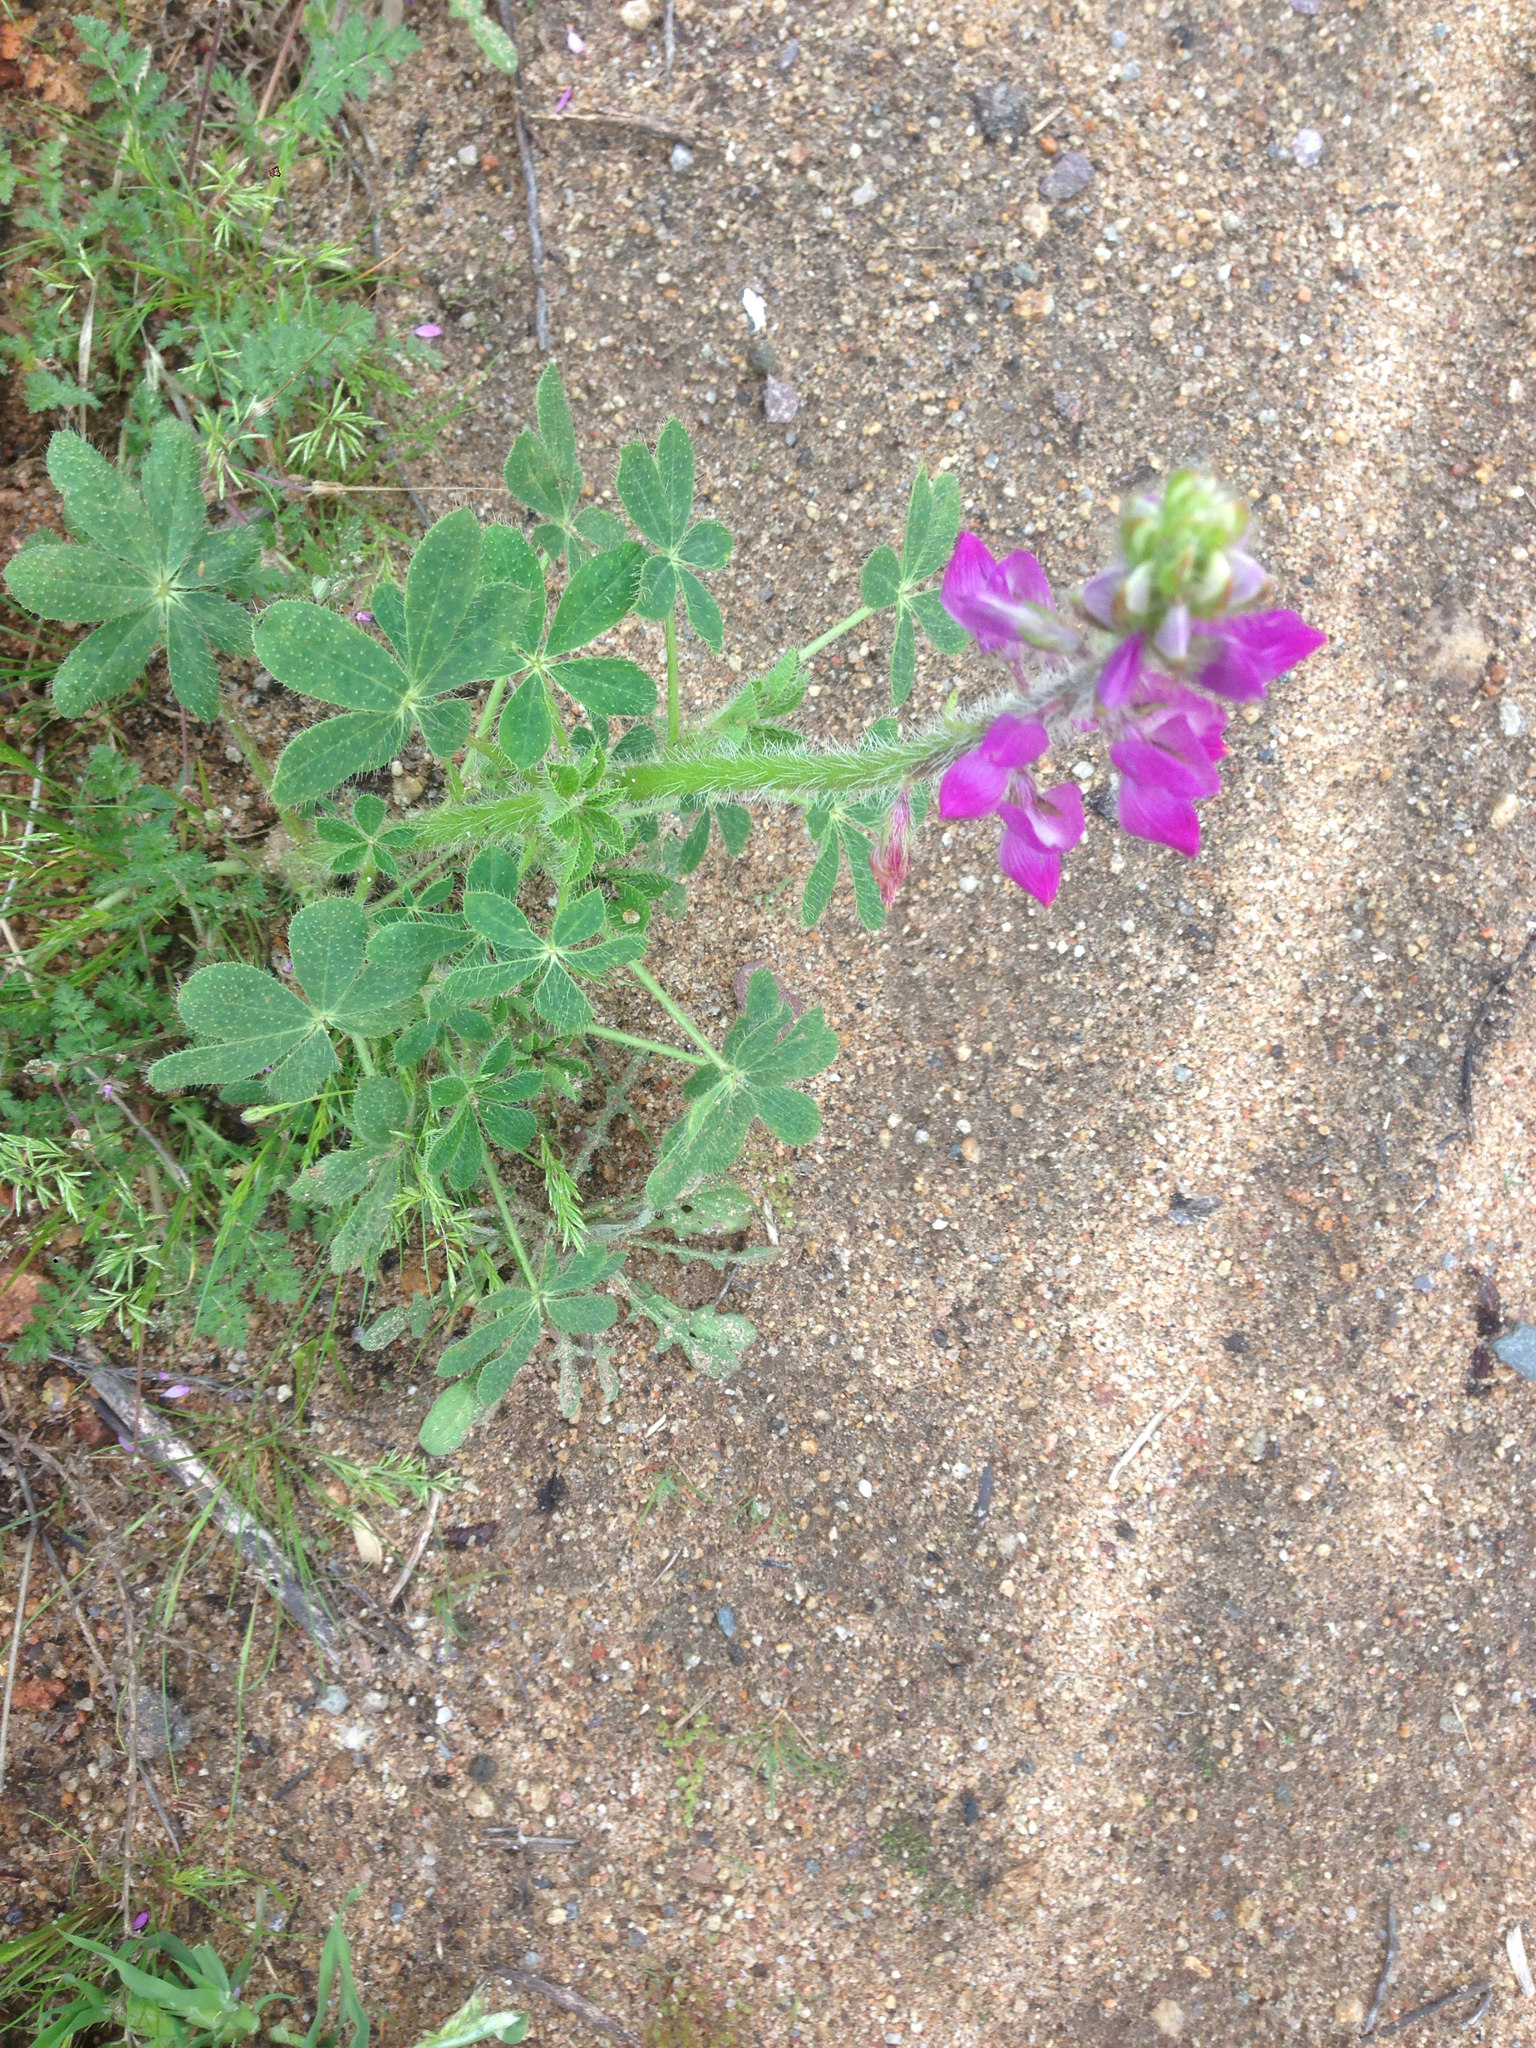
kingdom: Plantae
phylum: Tracheophyta
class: Magnoliopsida
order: Fabales
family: Fabaceae
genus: Lupinus
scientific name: Lupinus hirsutissimus
